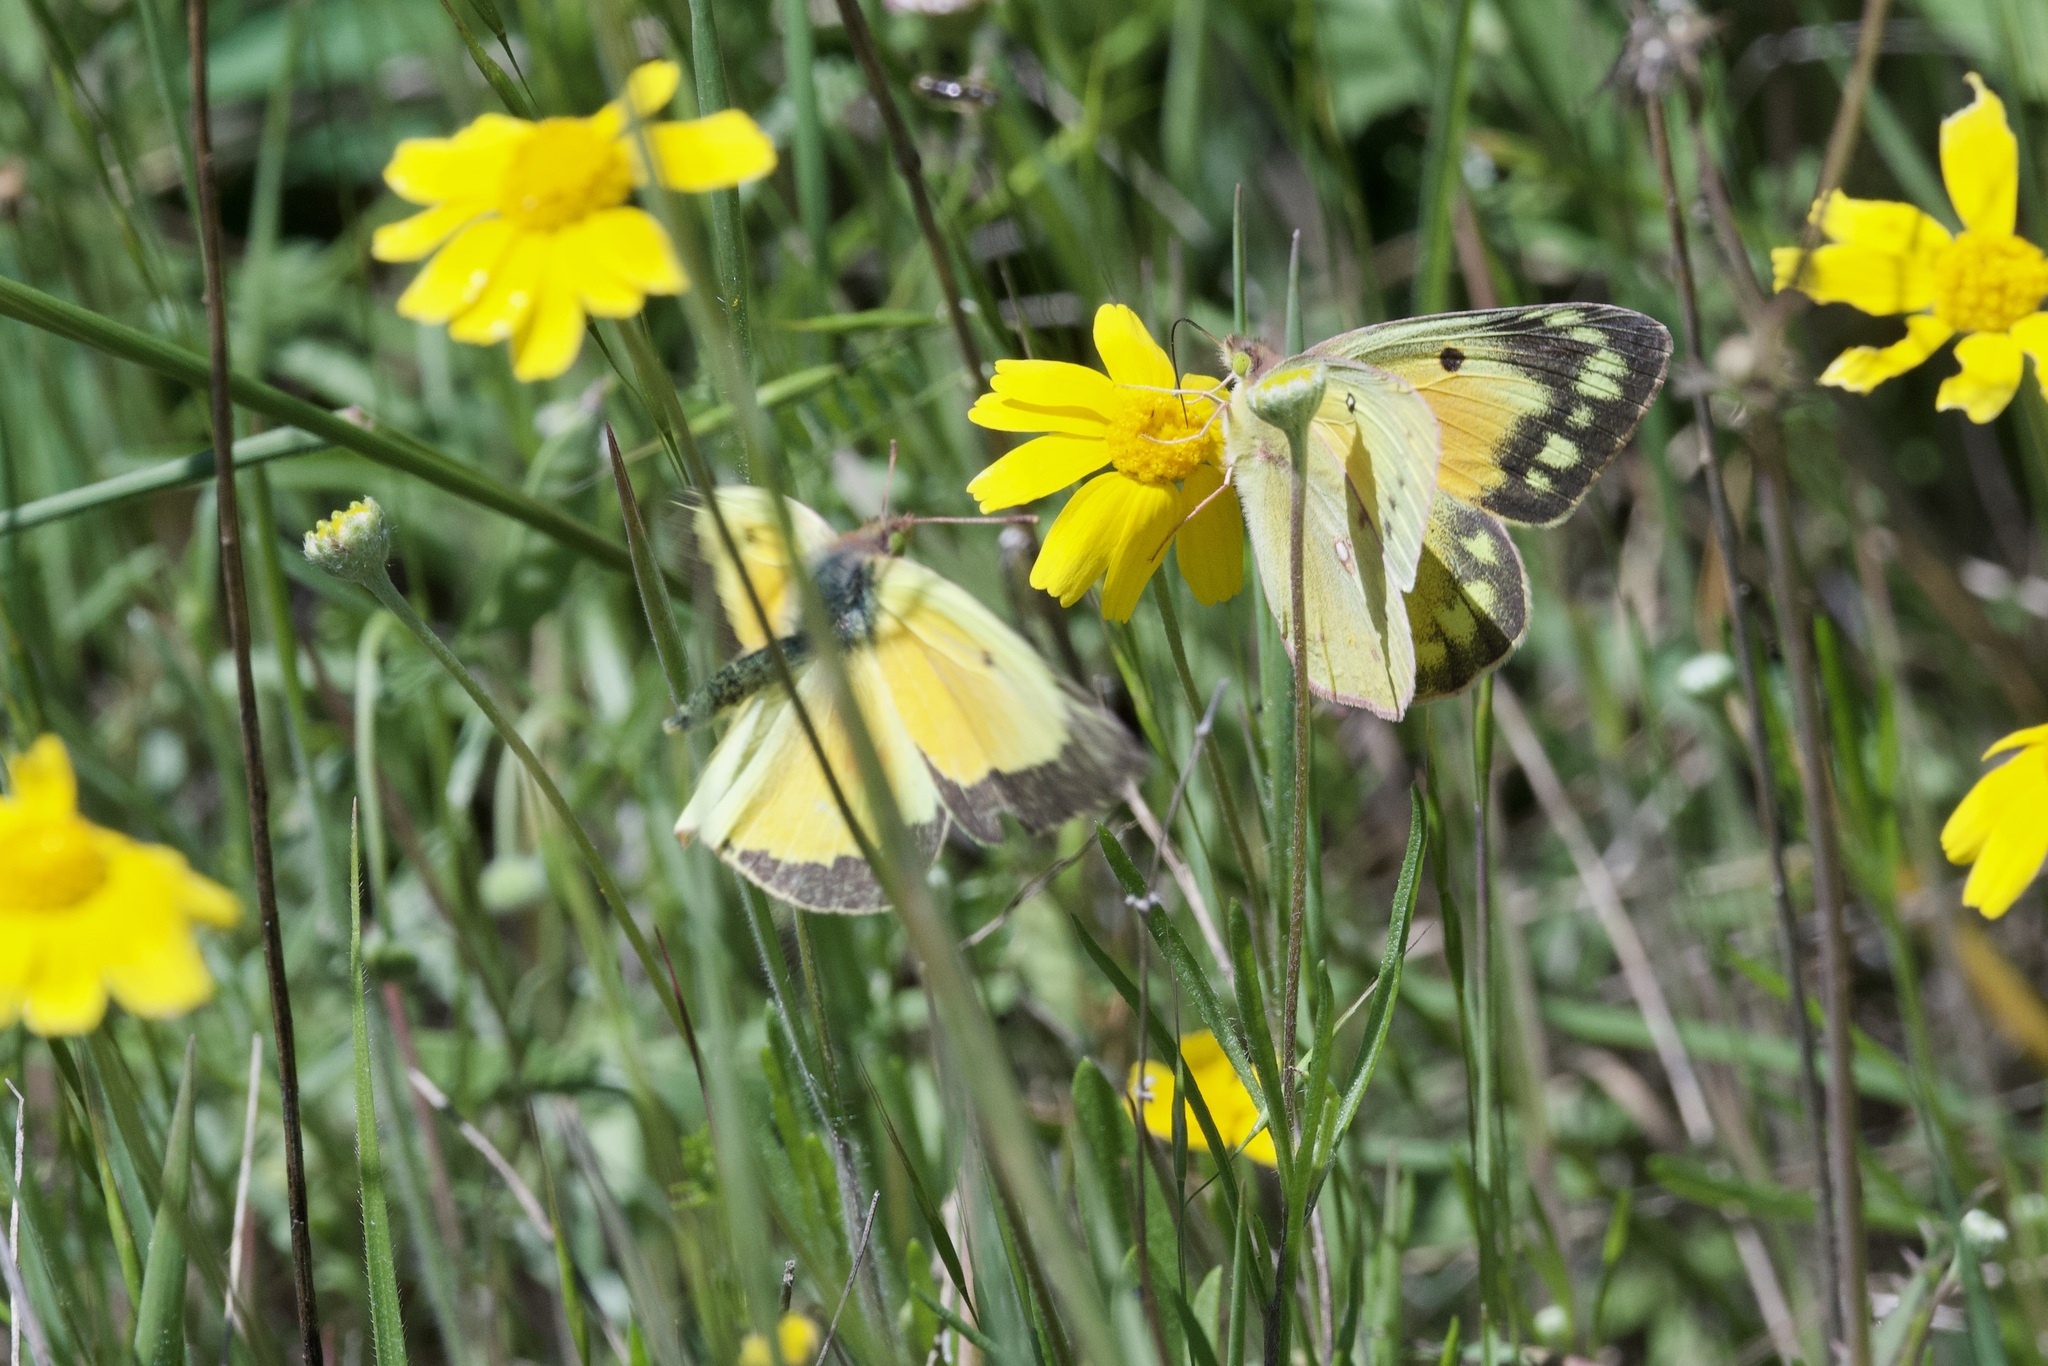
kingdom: Animalia
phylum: Arthropoda
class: Insecta
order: Lepidoptera
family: Pieridae
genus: Colias
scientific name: Colias eurytheme
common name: Alfalfa butterfly
